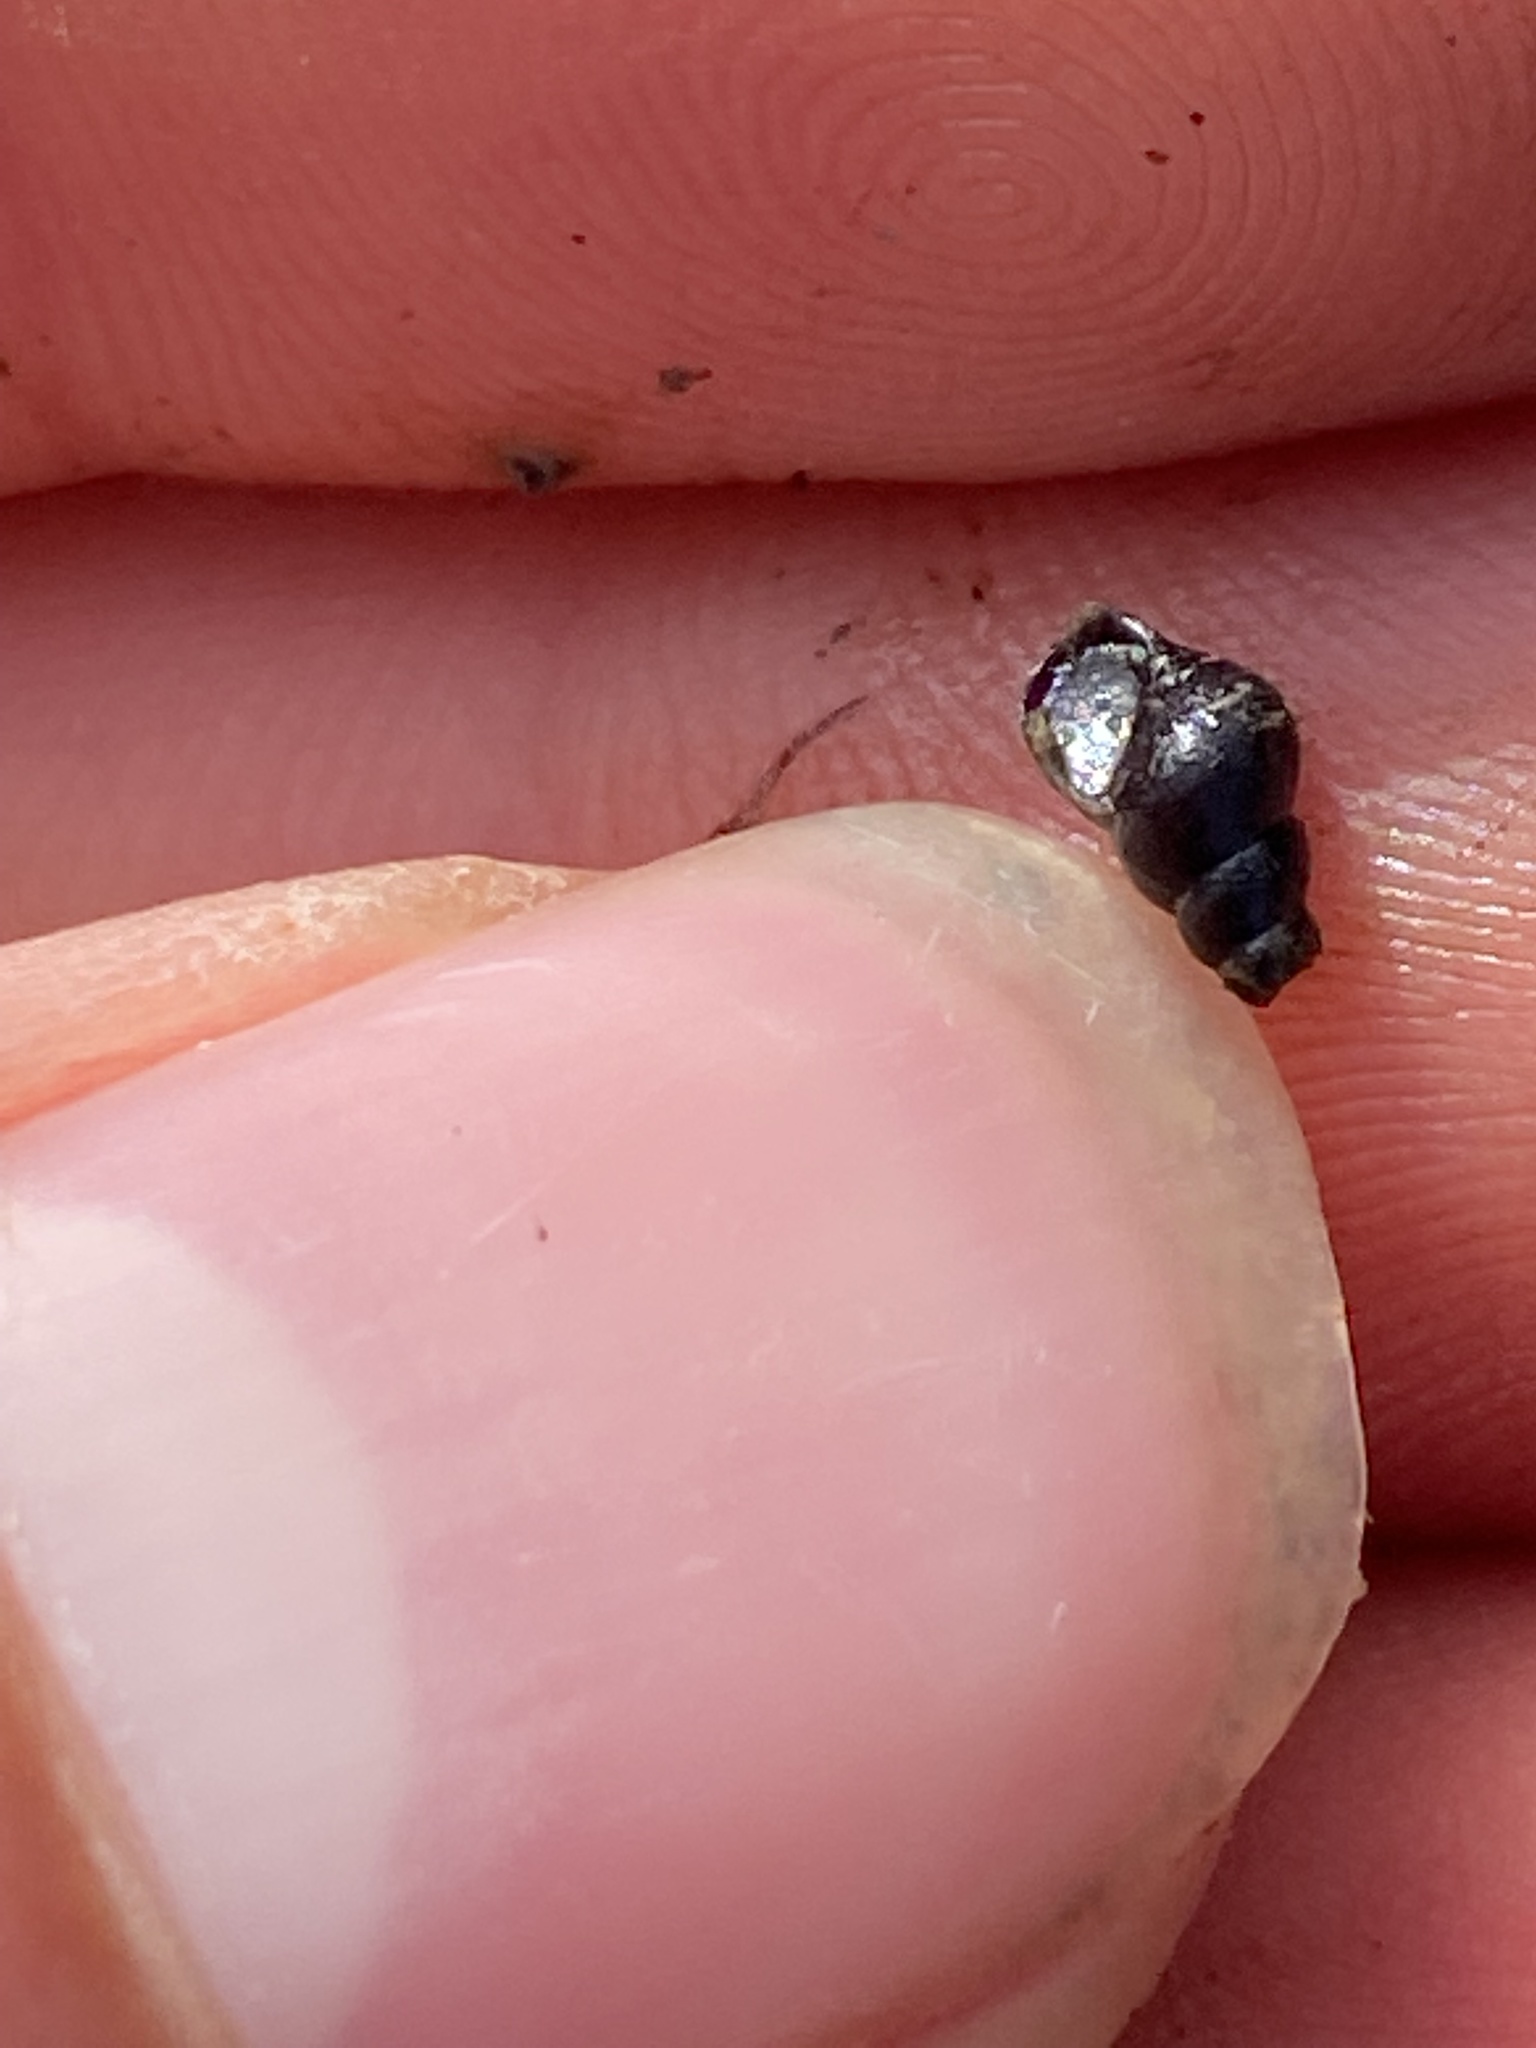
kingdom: Animalia
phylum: Mollusca
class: Gastropoda
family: Semisulcospiridae
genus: Juga
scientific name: Juga nigrina
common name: Black juga
